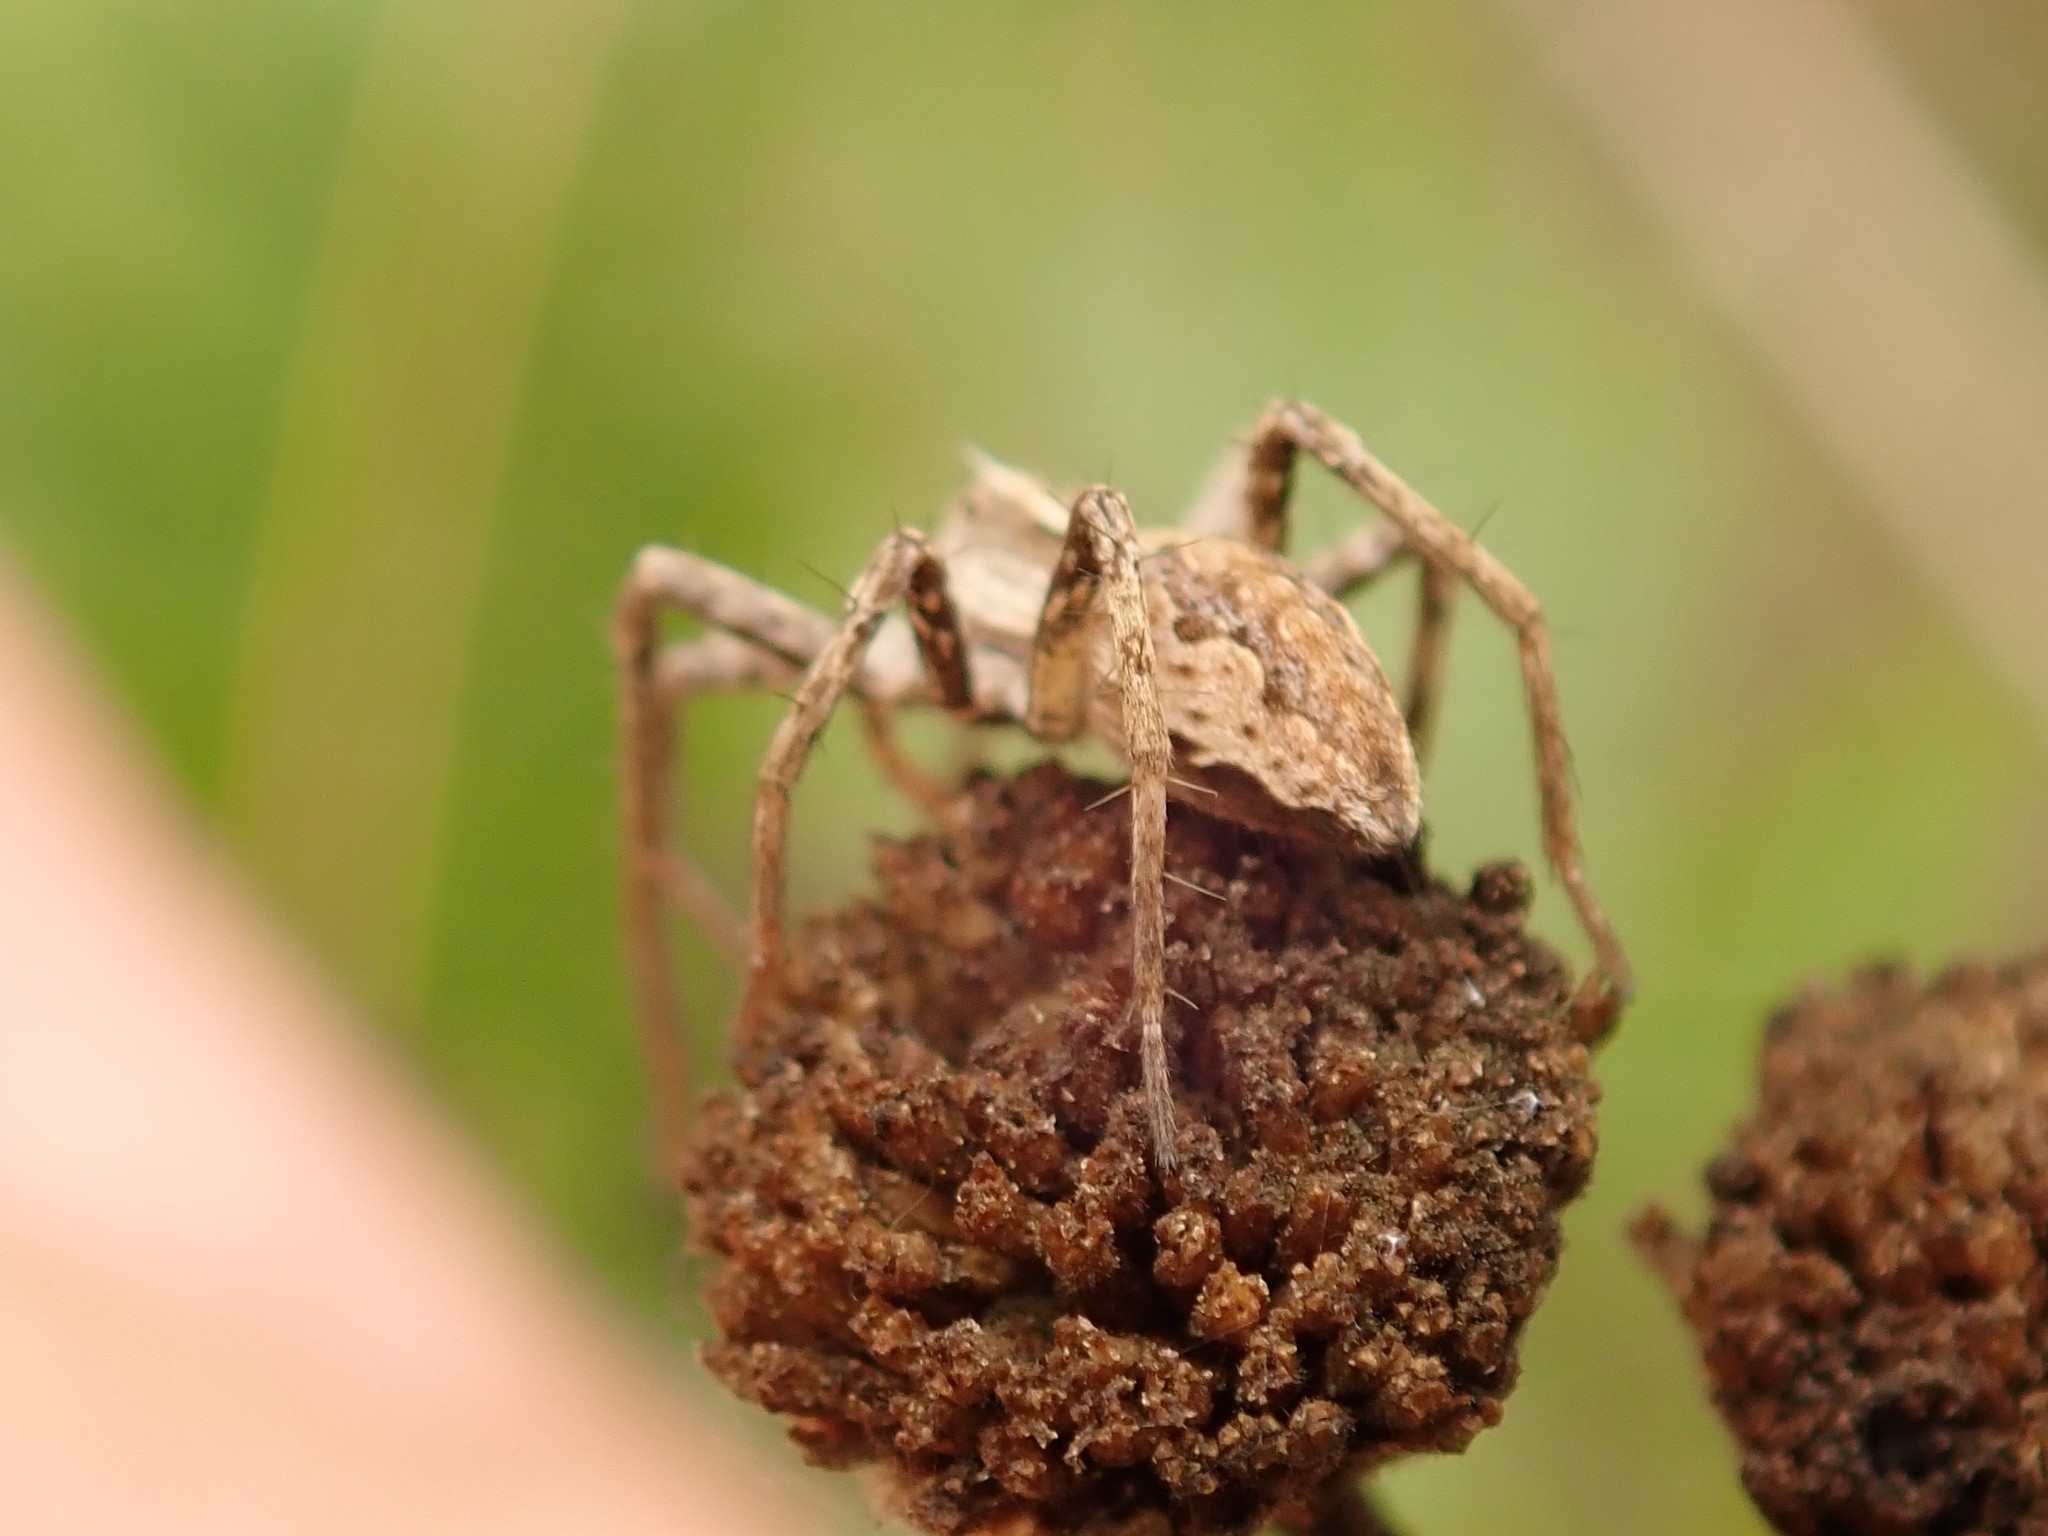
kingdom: Animalia
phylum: Arthropoda
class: Arachnida
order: Araneae
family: Pisauridae
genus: Pisaura
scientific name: Pisaura mirabilis
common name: Tent spider
